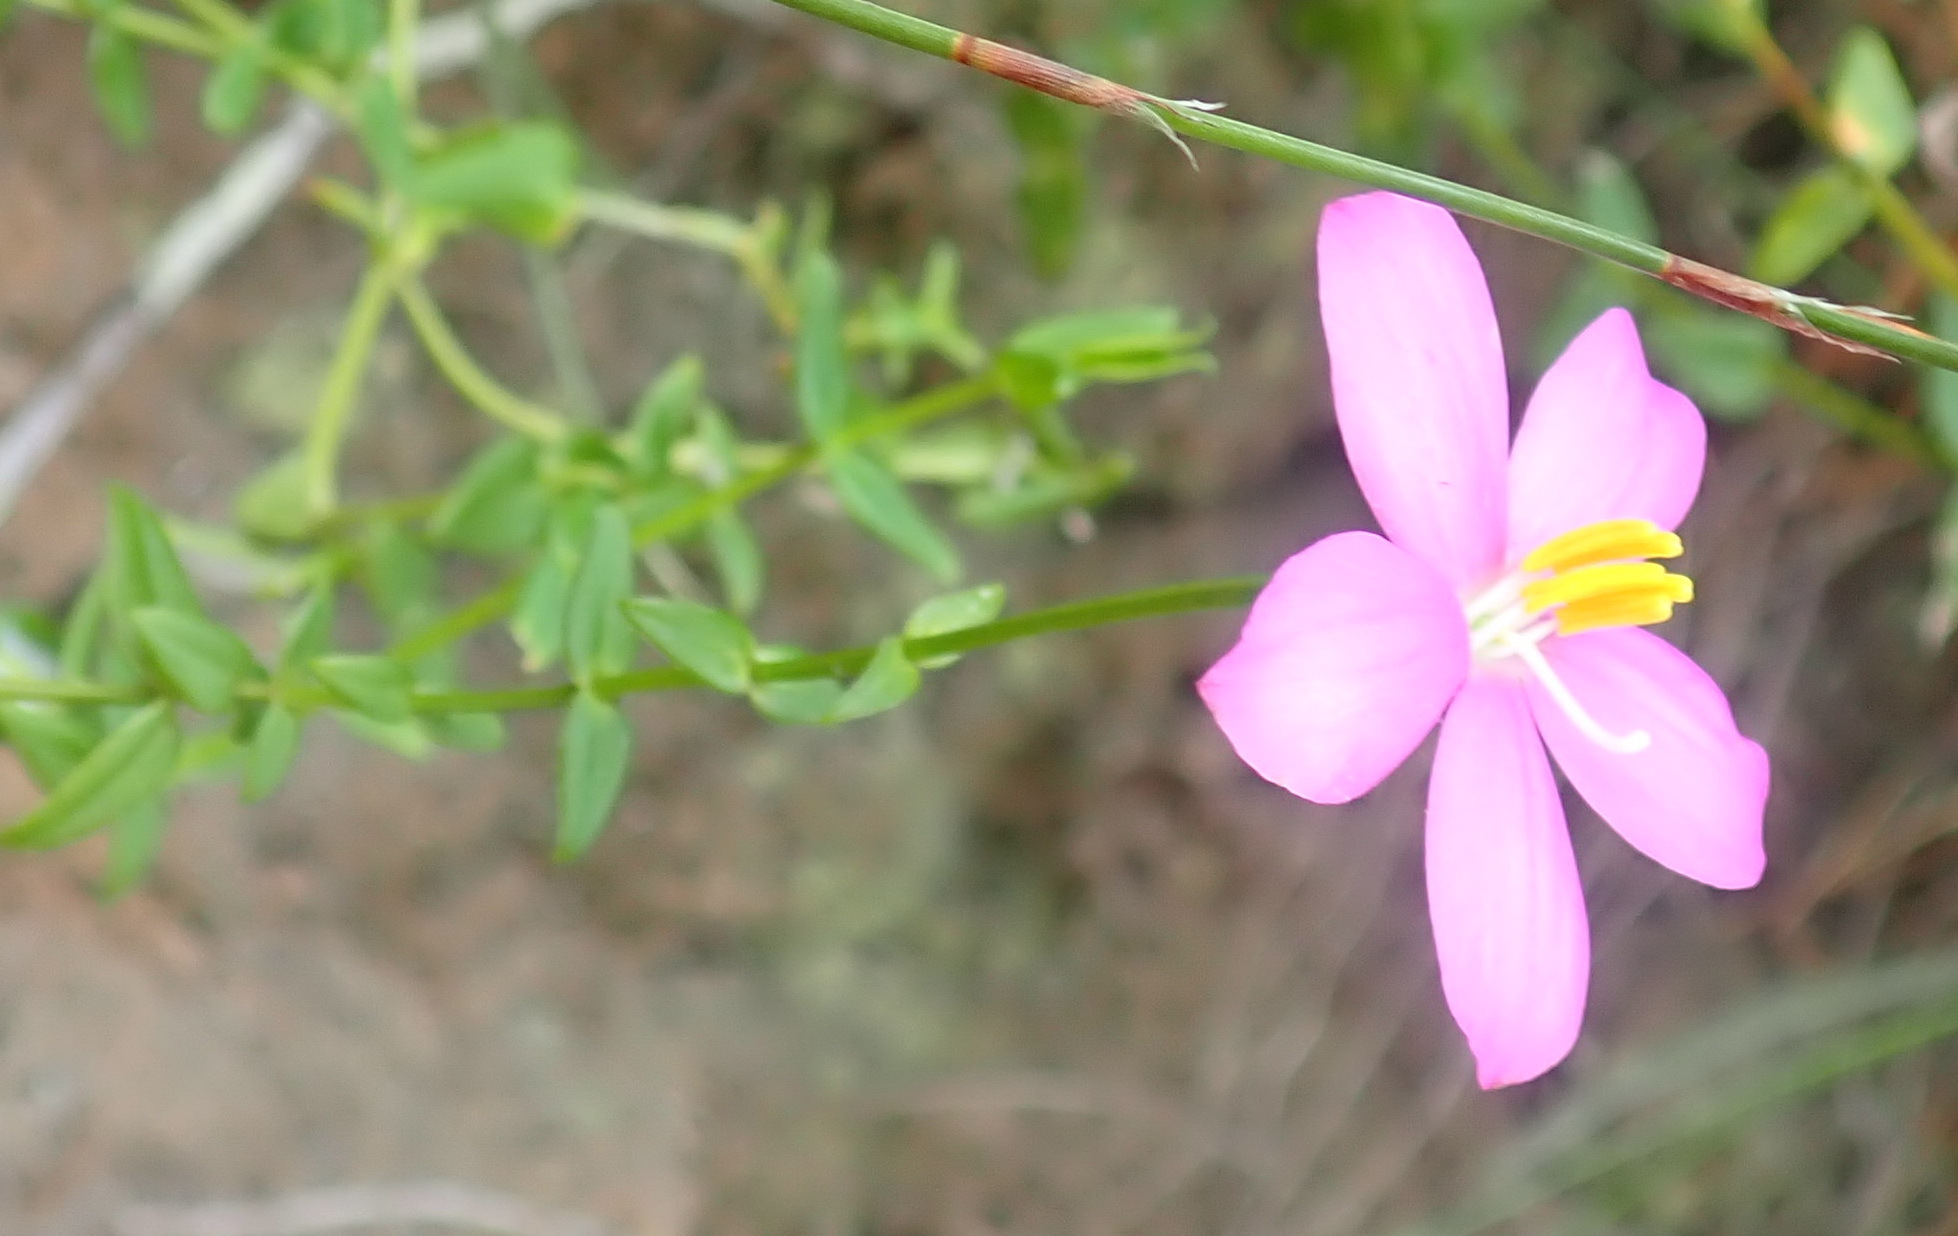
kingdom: Plantae
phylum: Tracheophyta
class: Magnoliopsida
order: Gentianales
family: Gentianaceae
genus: Chironia
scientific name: Chironia tetragona
